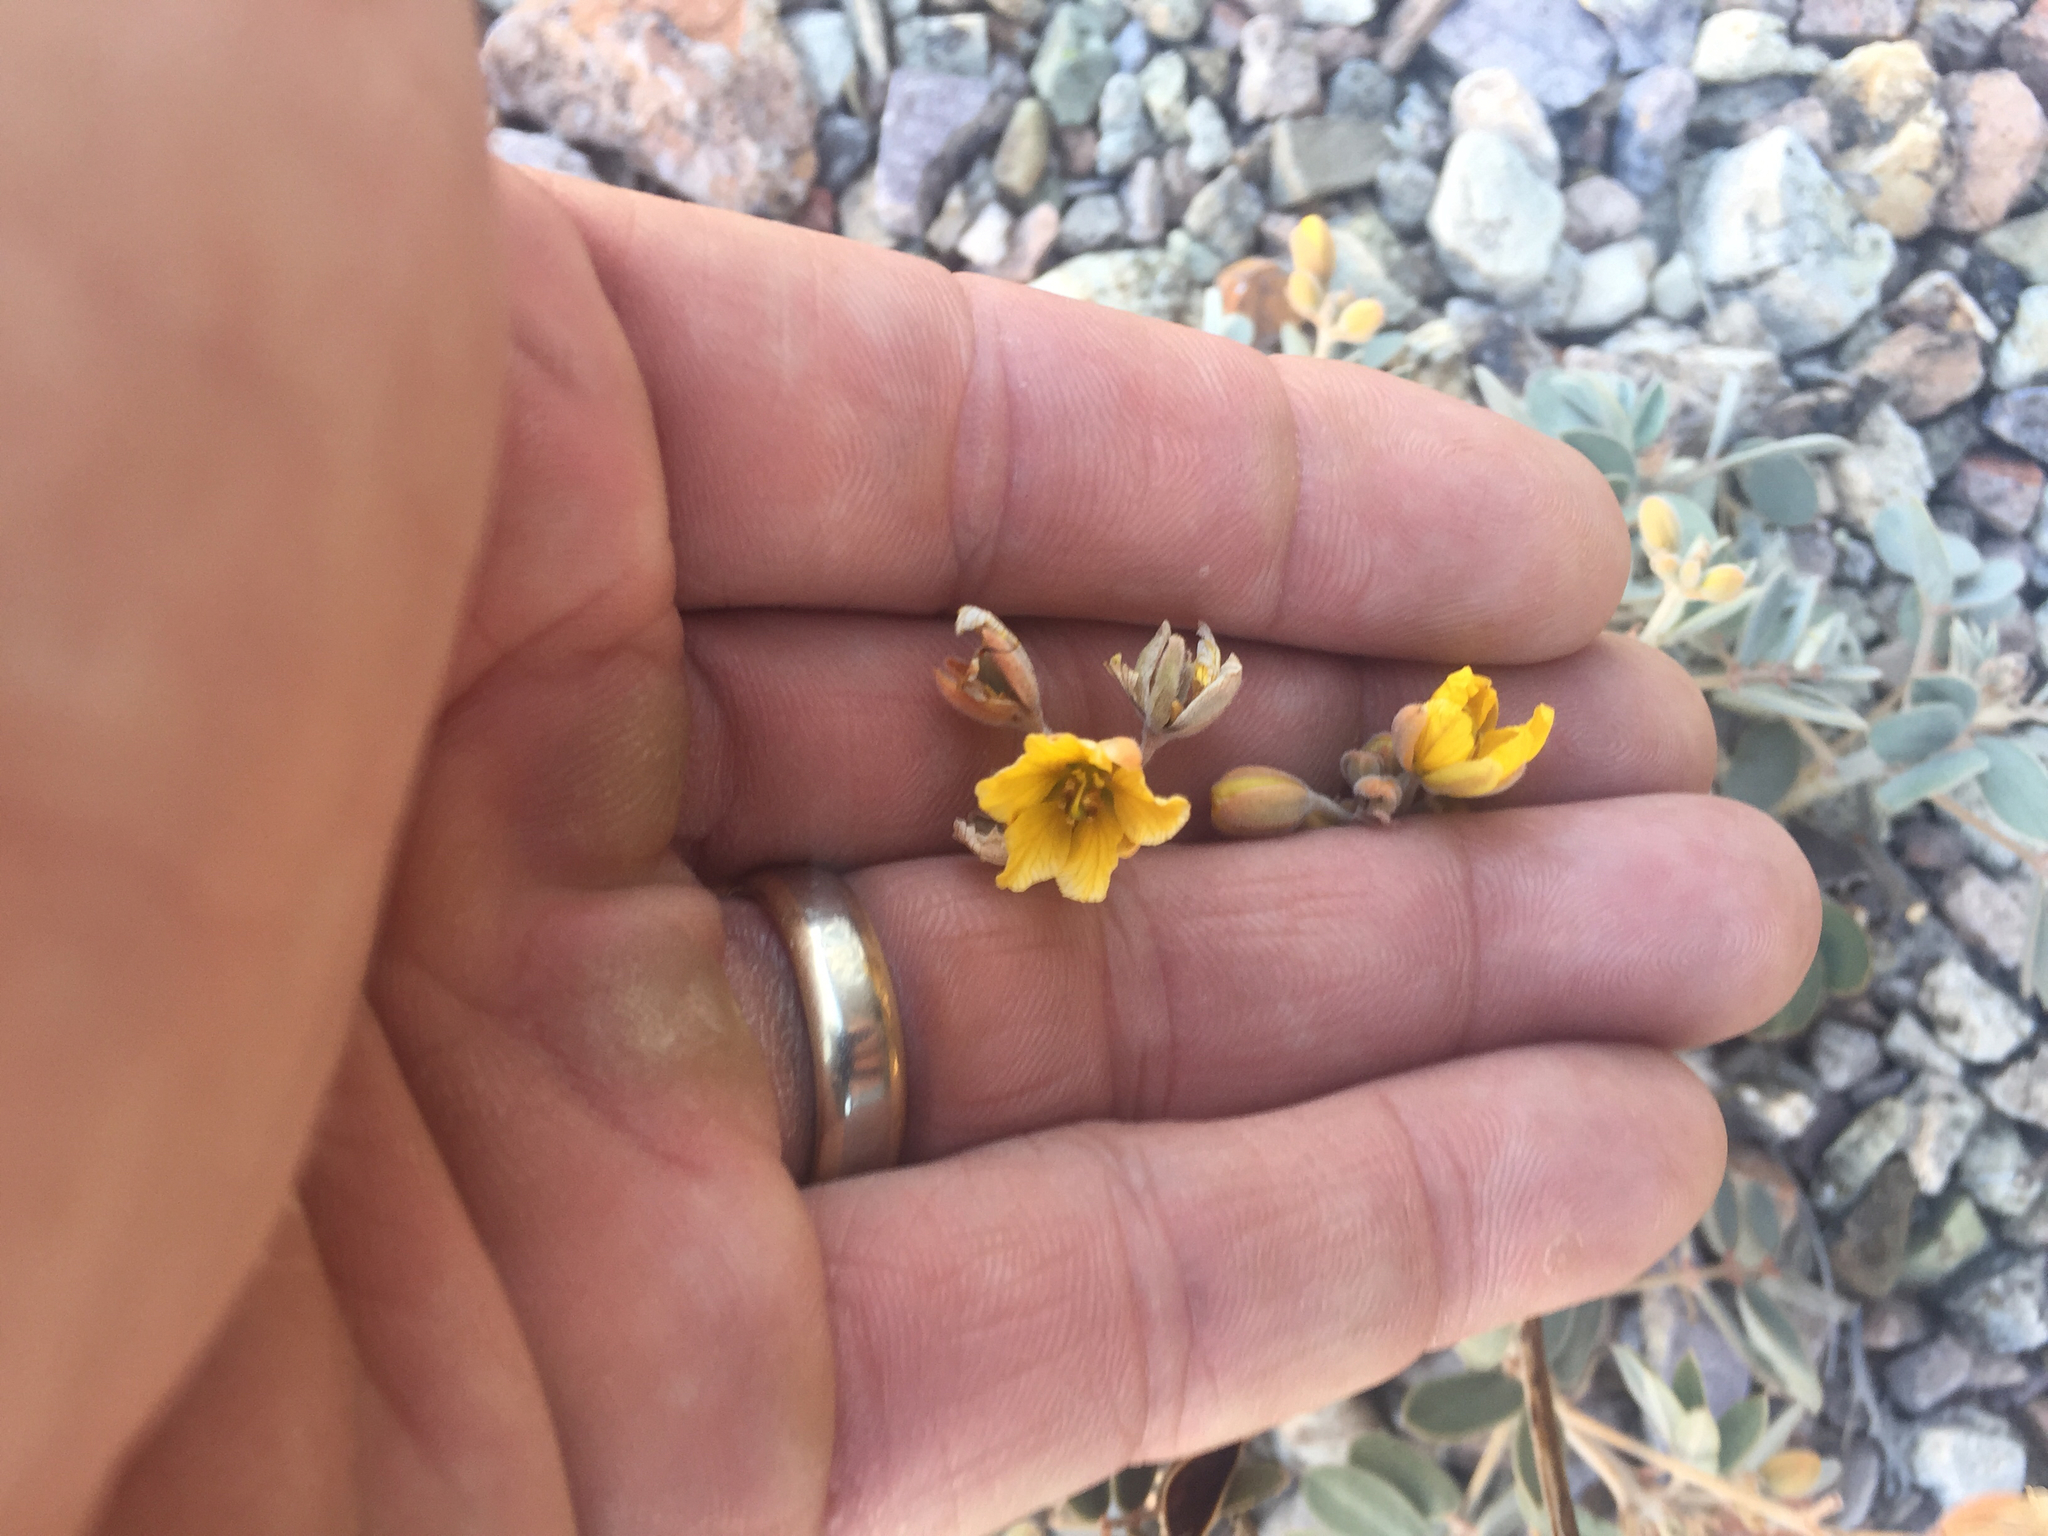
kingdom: Plantae
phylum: Tracheophyta
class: Magnoliopsida
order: Fabales
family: Fabaceae
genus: Senna
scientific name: Senna covesii
